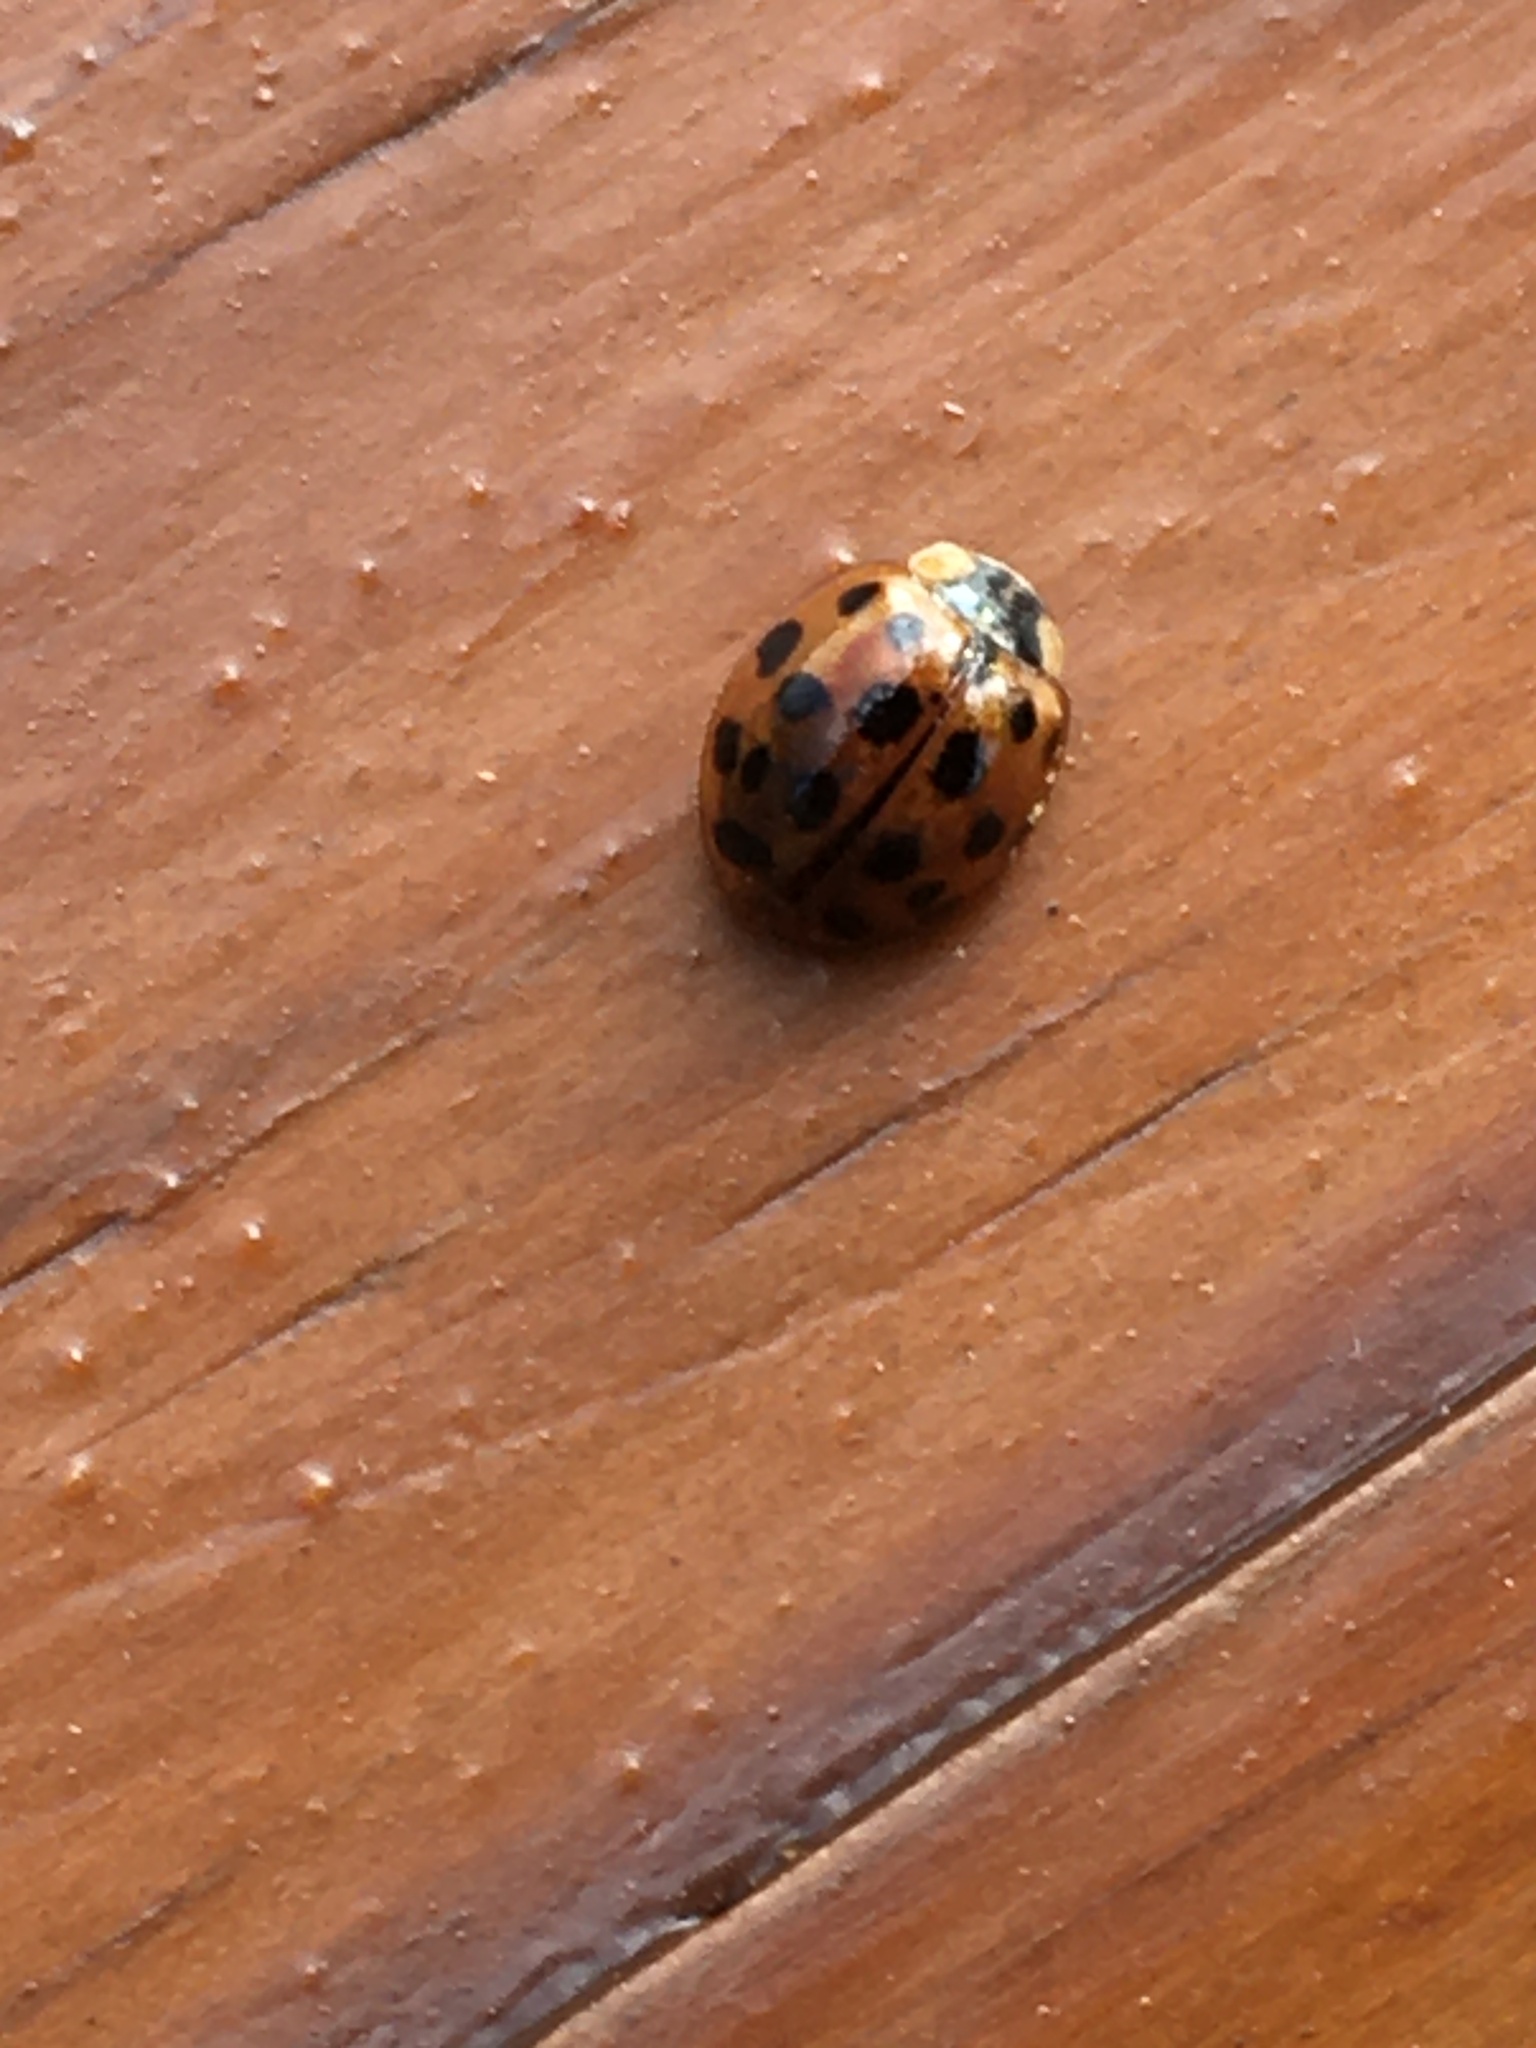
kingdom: Animalia
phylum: Arthropoda
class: Insecta
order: Coleoptera
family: Coccinellidae
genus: Harmonia
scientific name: Harmonia axyridis
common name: Harlequin ladybird
